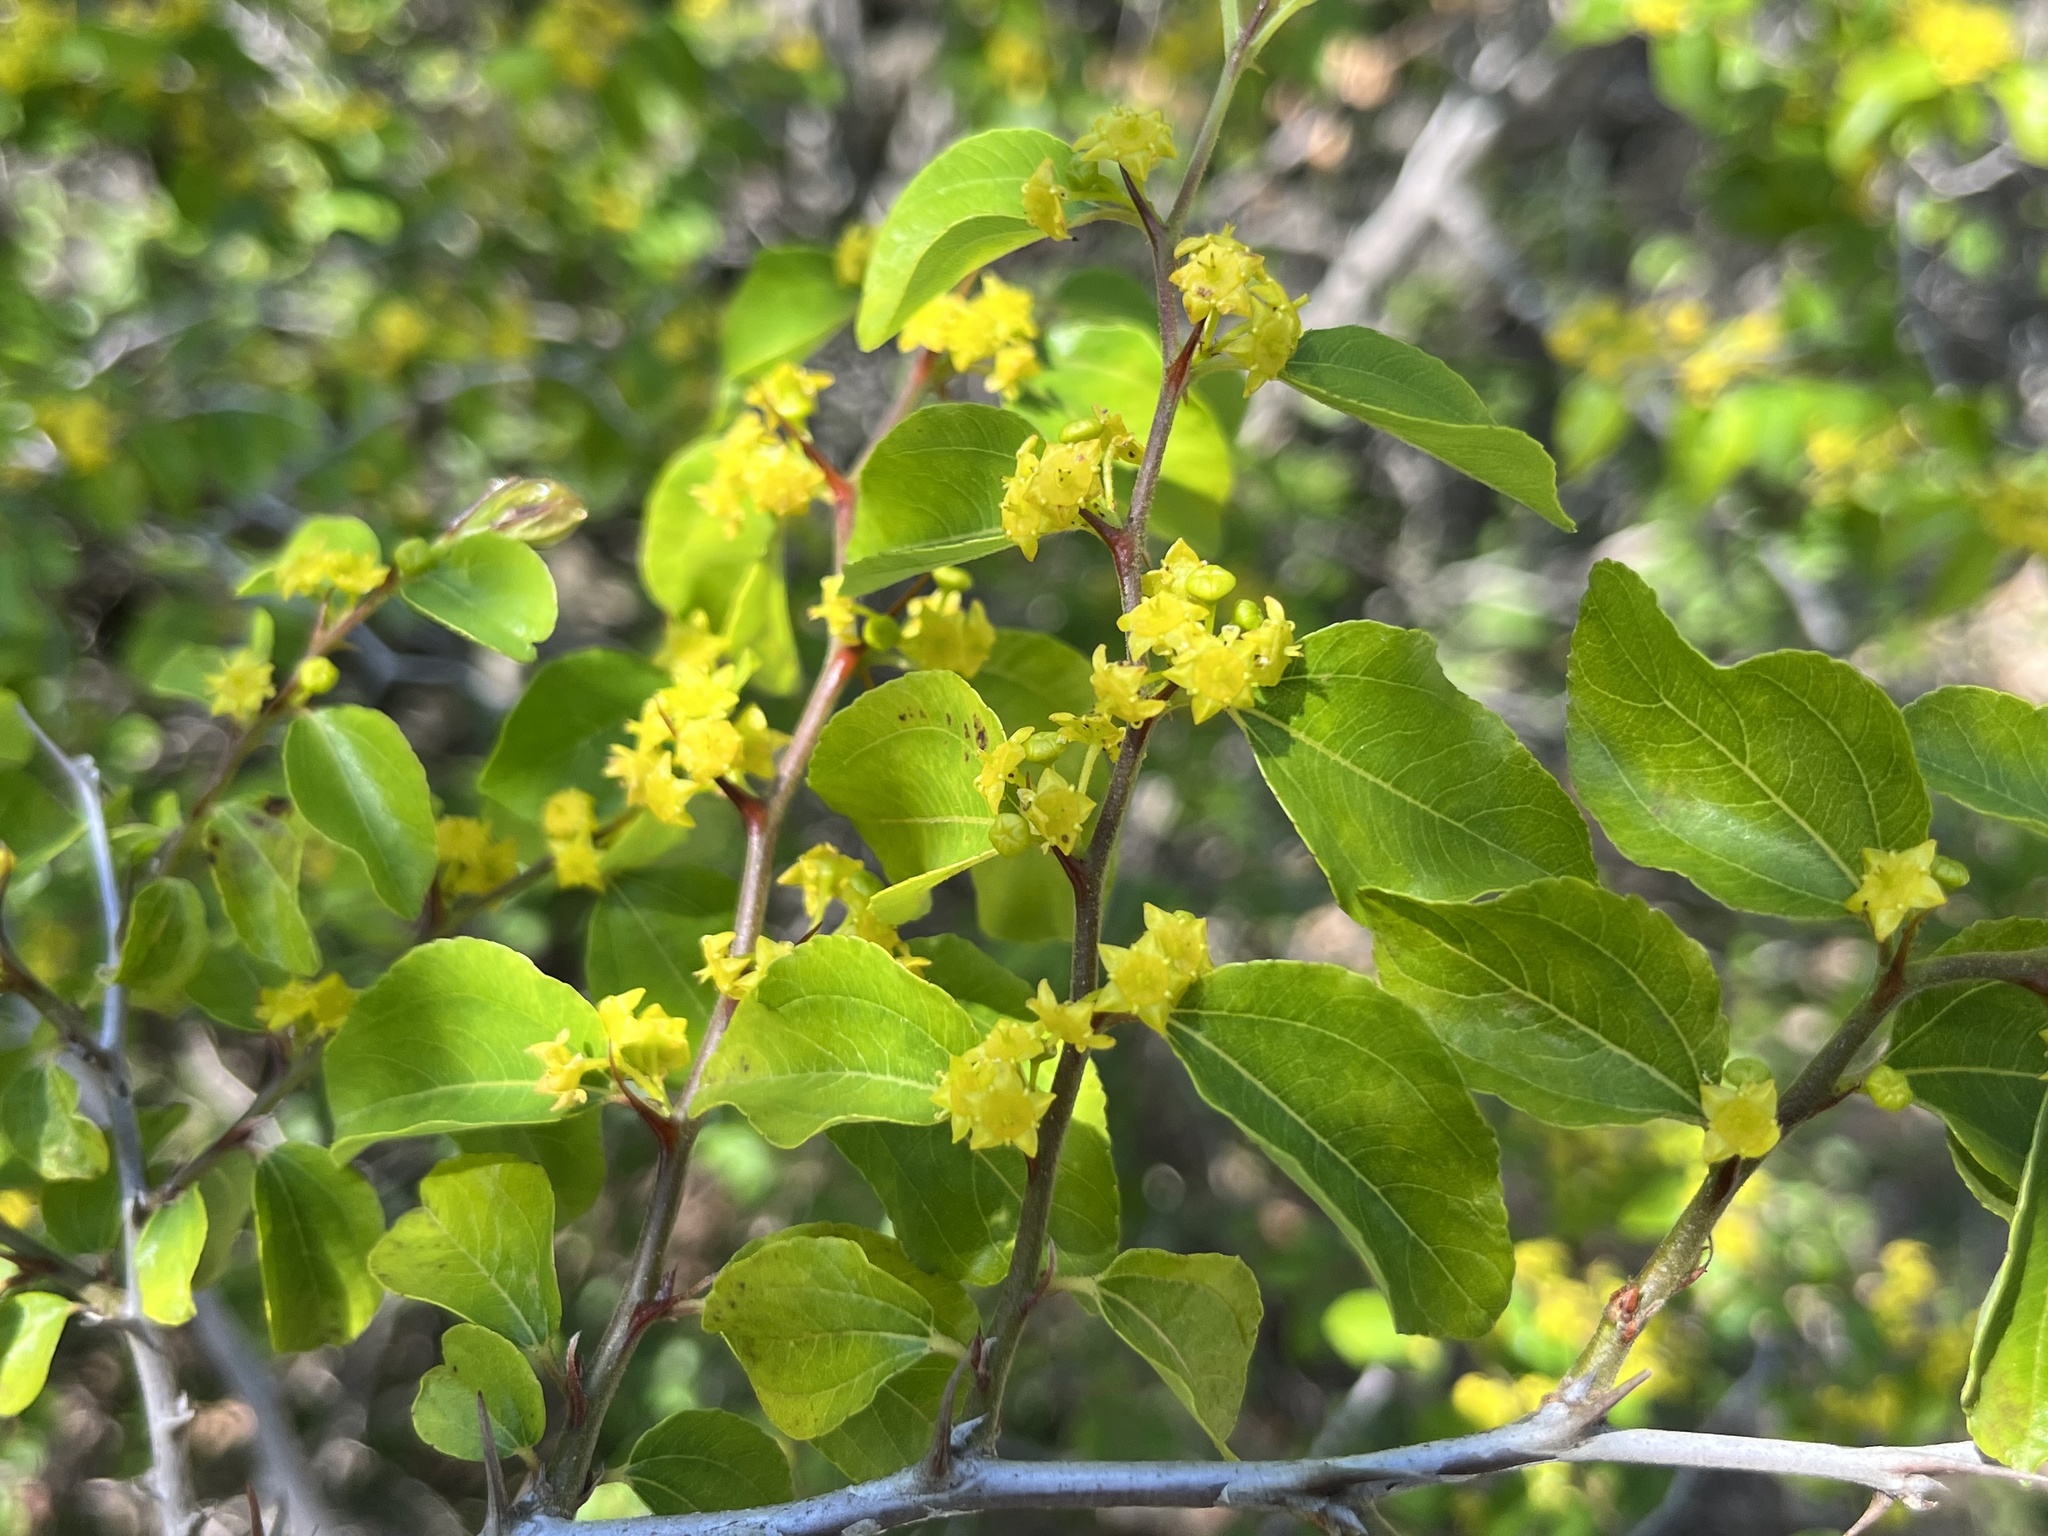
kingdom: Plantae
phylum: Tracheophyta
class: Magnoliopsida
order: Rosales
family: Rhamnaceae
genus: Paliurus
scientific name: Paliurus spina-christi
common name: Jeruselem thorn
